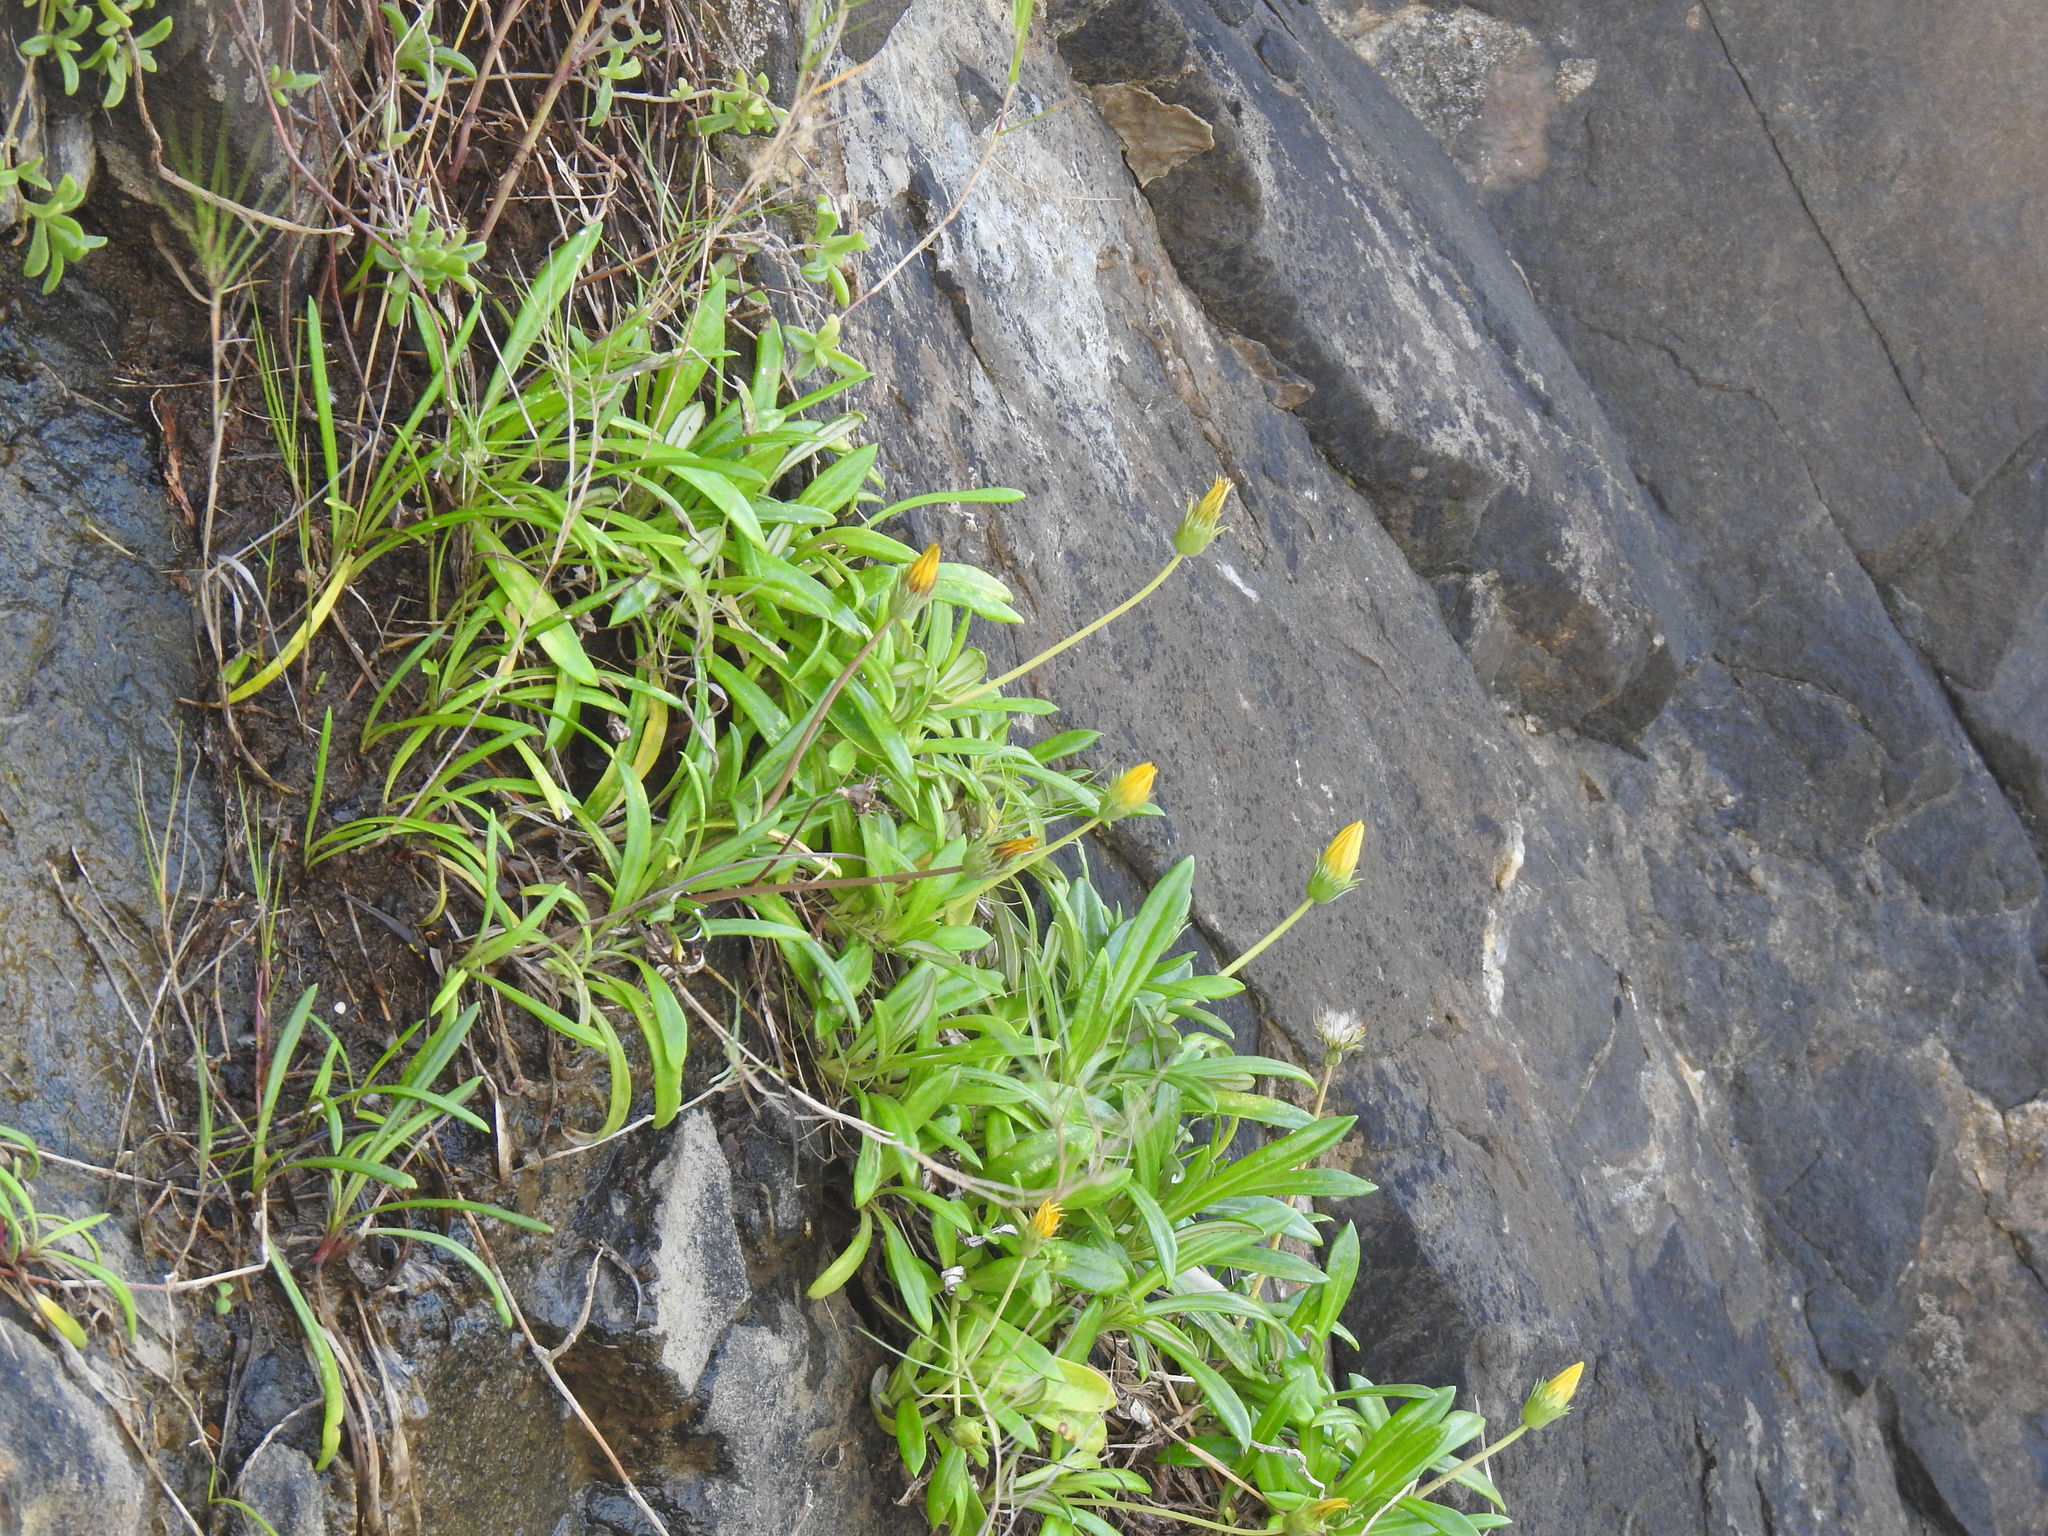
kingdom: Plantae
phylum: Tracheophyta
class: Magnoliopsida
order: Asterales
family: Asteraceae
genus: Gazania
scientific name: Gazania rigens
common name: Treasureflower
